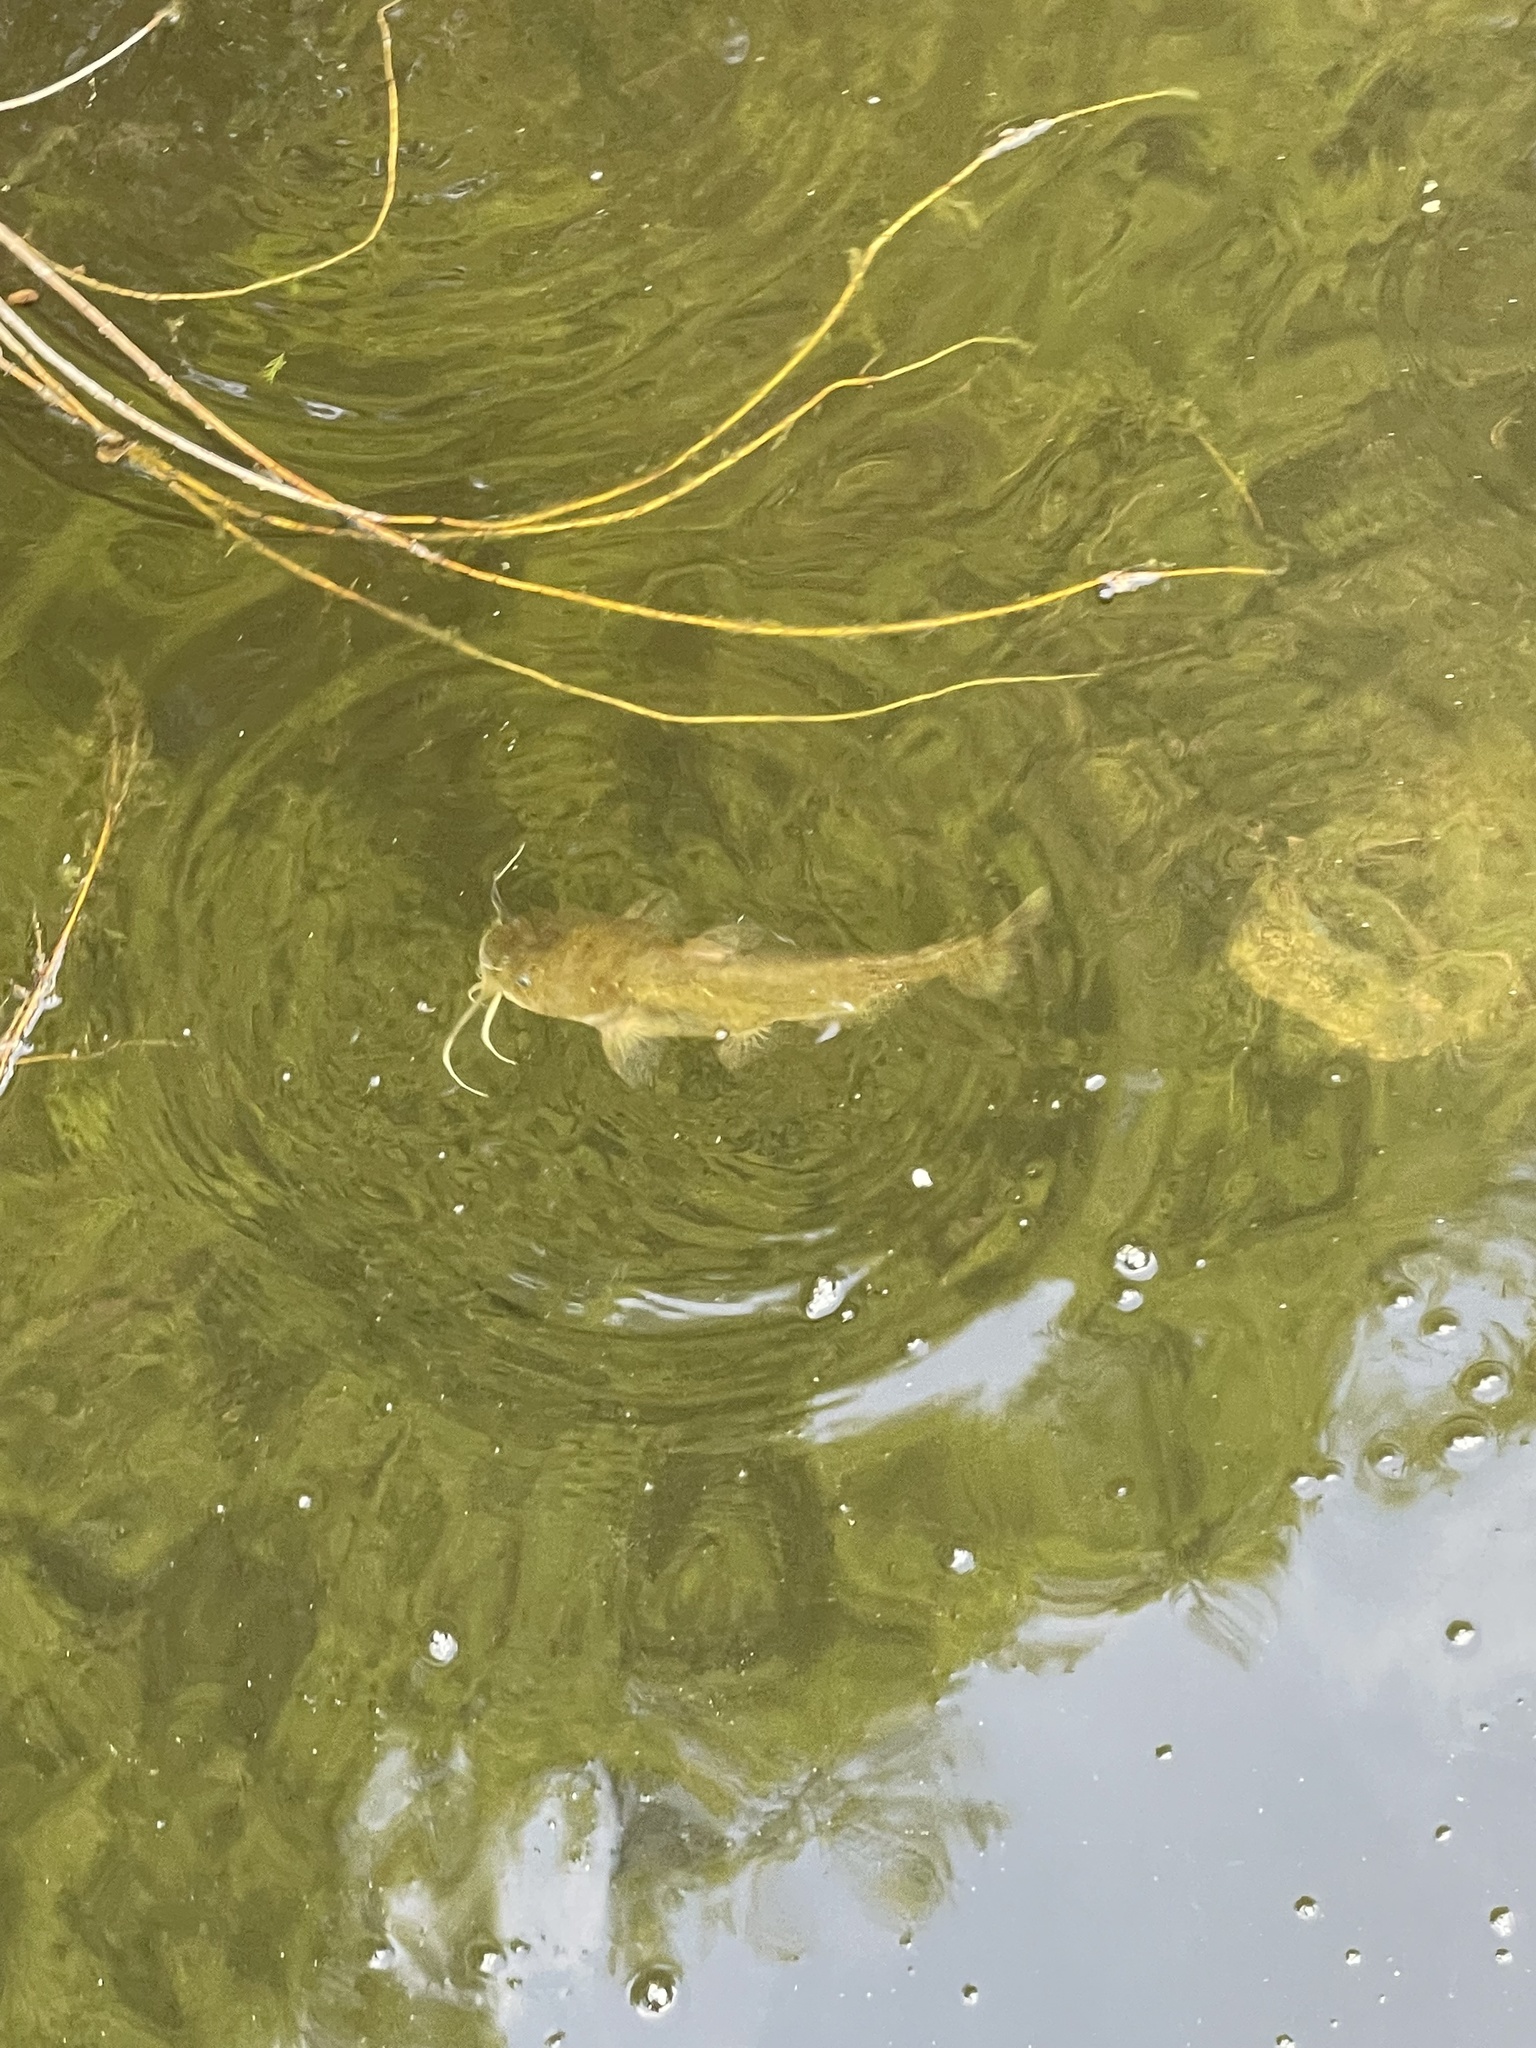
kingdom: Animalia
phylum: Chordata
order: Siluriformes
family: Ictaluridae
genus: Ameiurus
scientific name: Ameiurus
